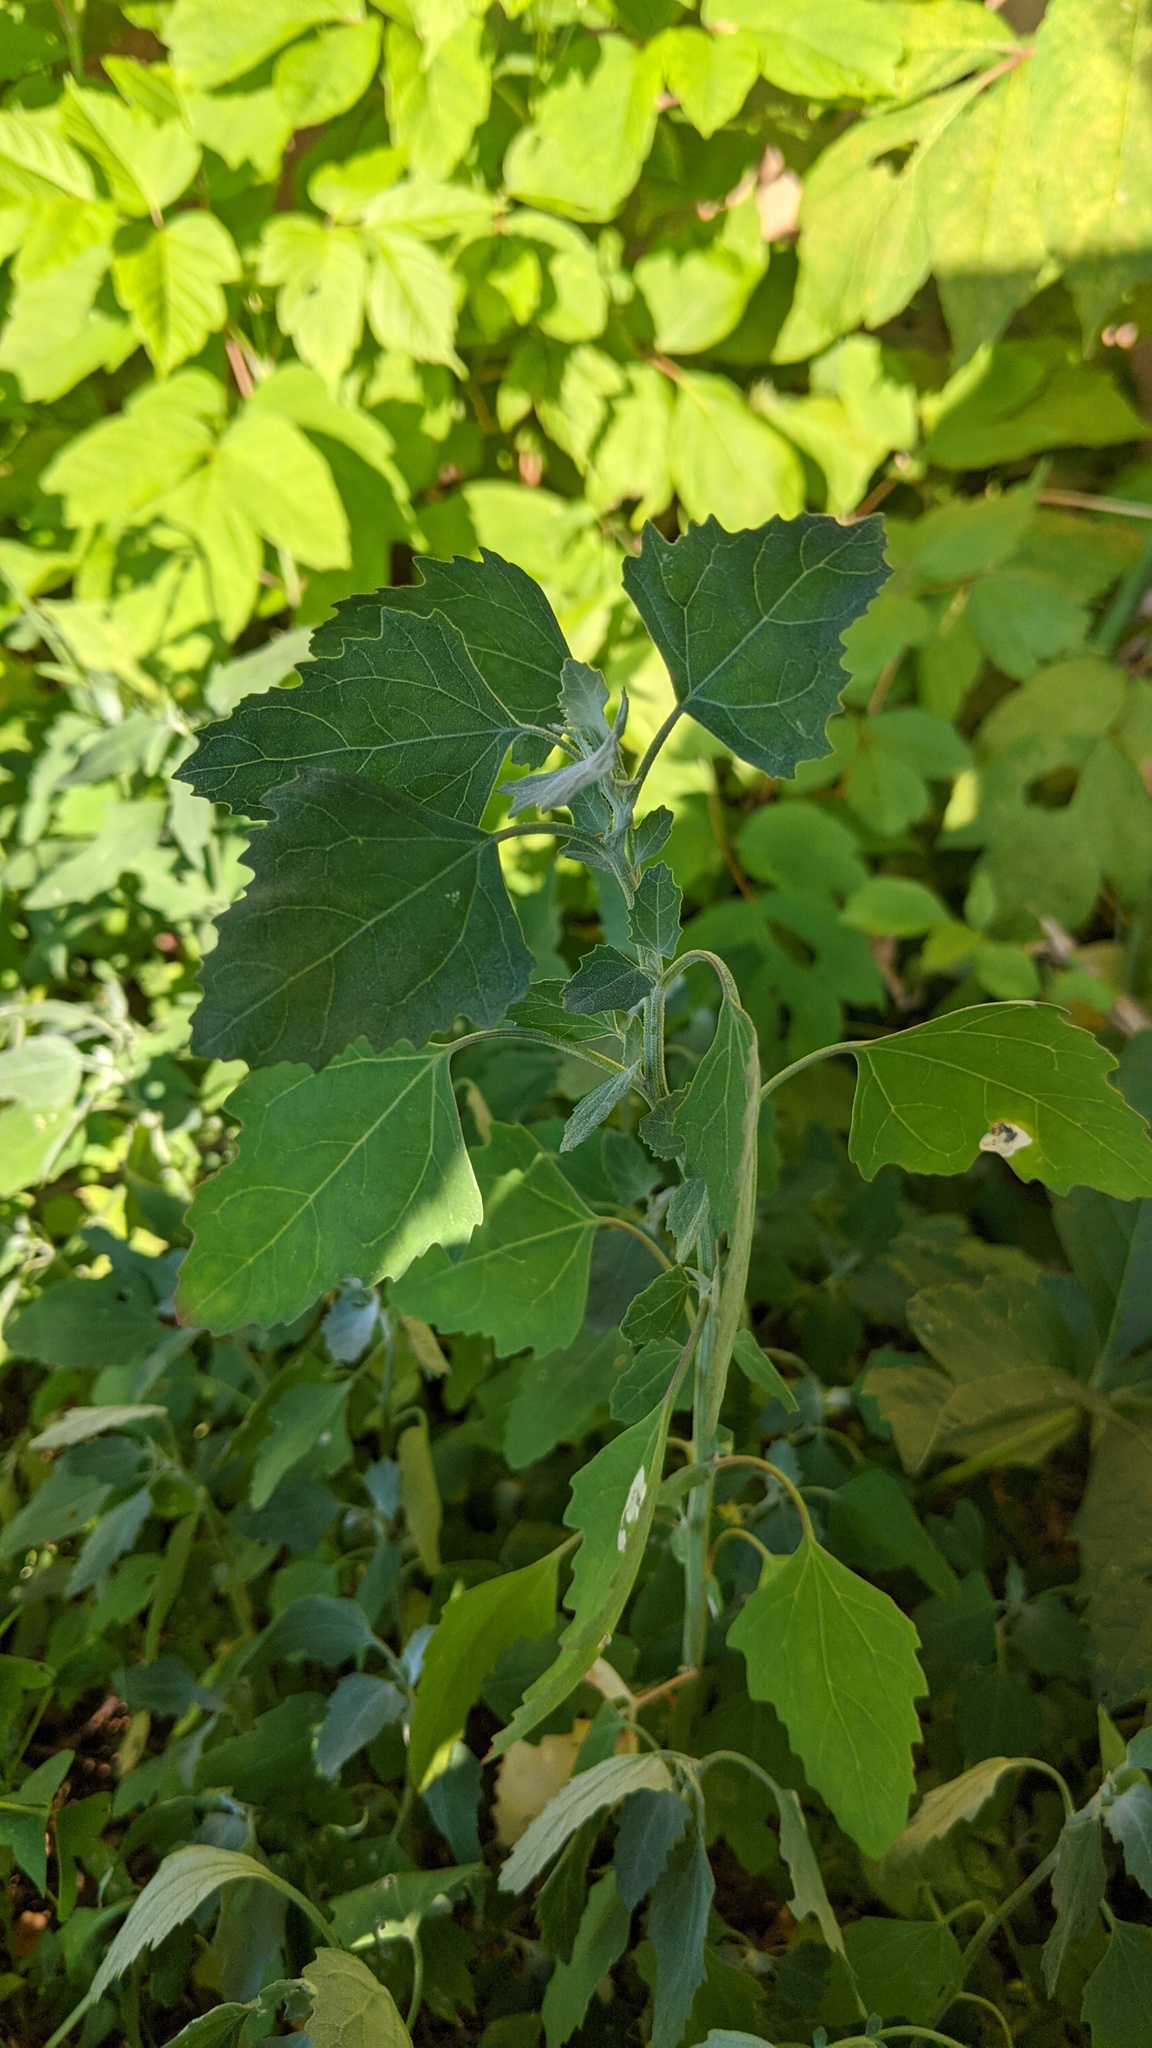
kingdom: Plantae
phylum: Tracheophyta
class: Magnoliopsida
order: Caryophyllales
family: Amaranthaceae
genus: Chenopodium
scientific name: Chenopodium album
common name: Fat-hen
